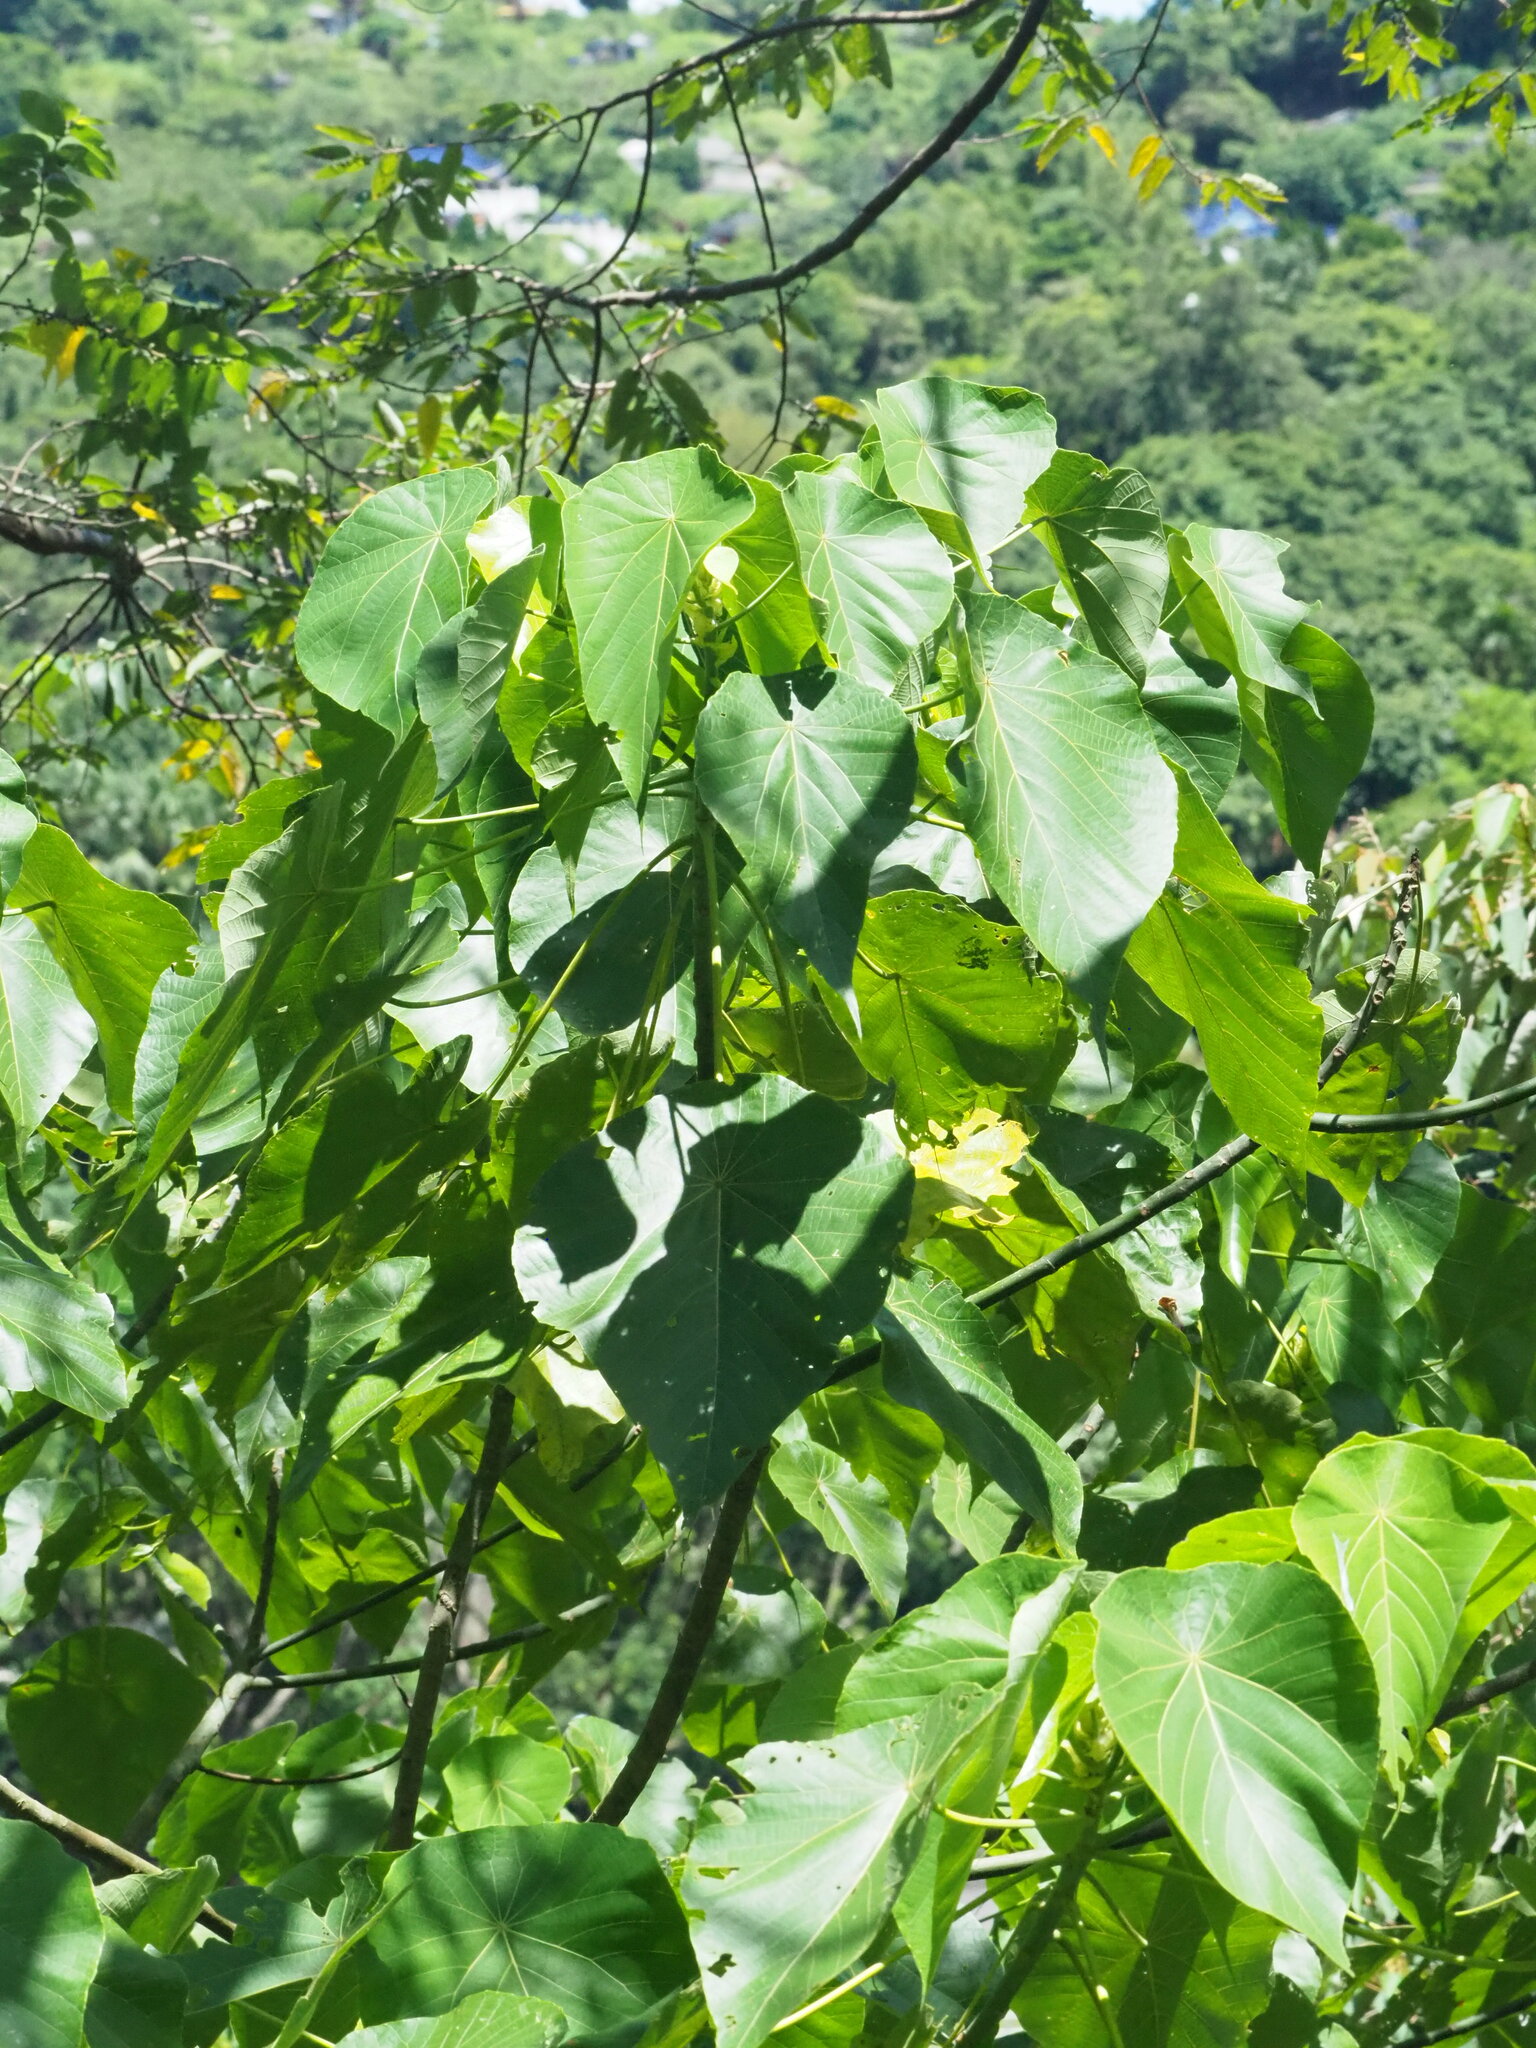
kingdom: Plantae
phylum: Tracheophyta
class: Magnoliopsida
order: Malpighiales
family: Euphorbiaceae
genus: Macaranga
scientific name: Macaranga tanarius
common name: Parasol leaf tree
